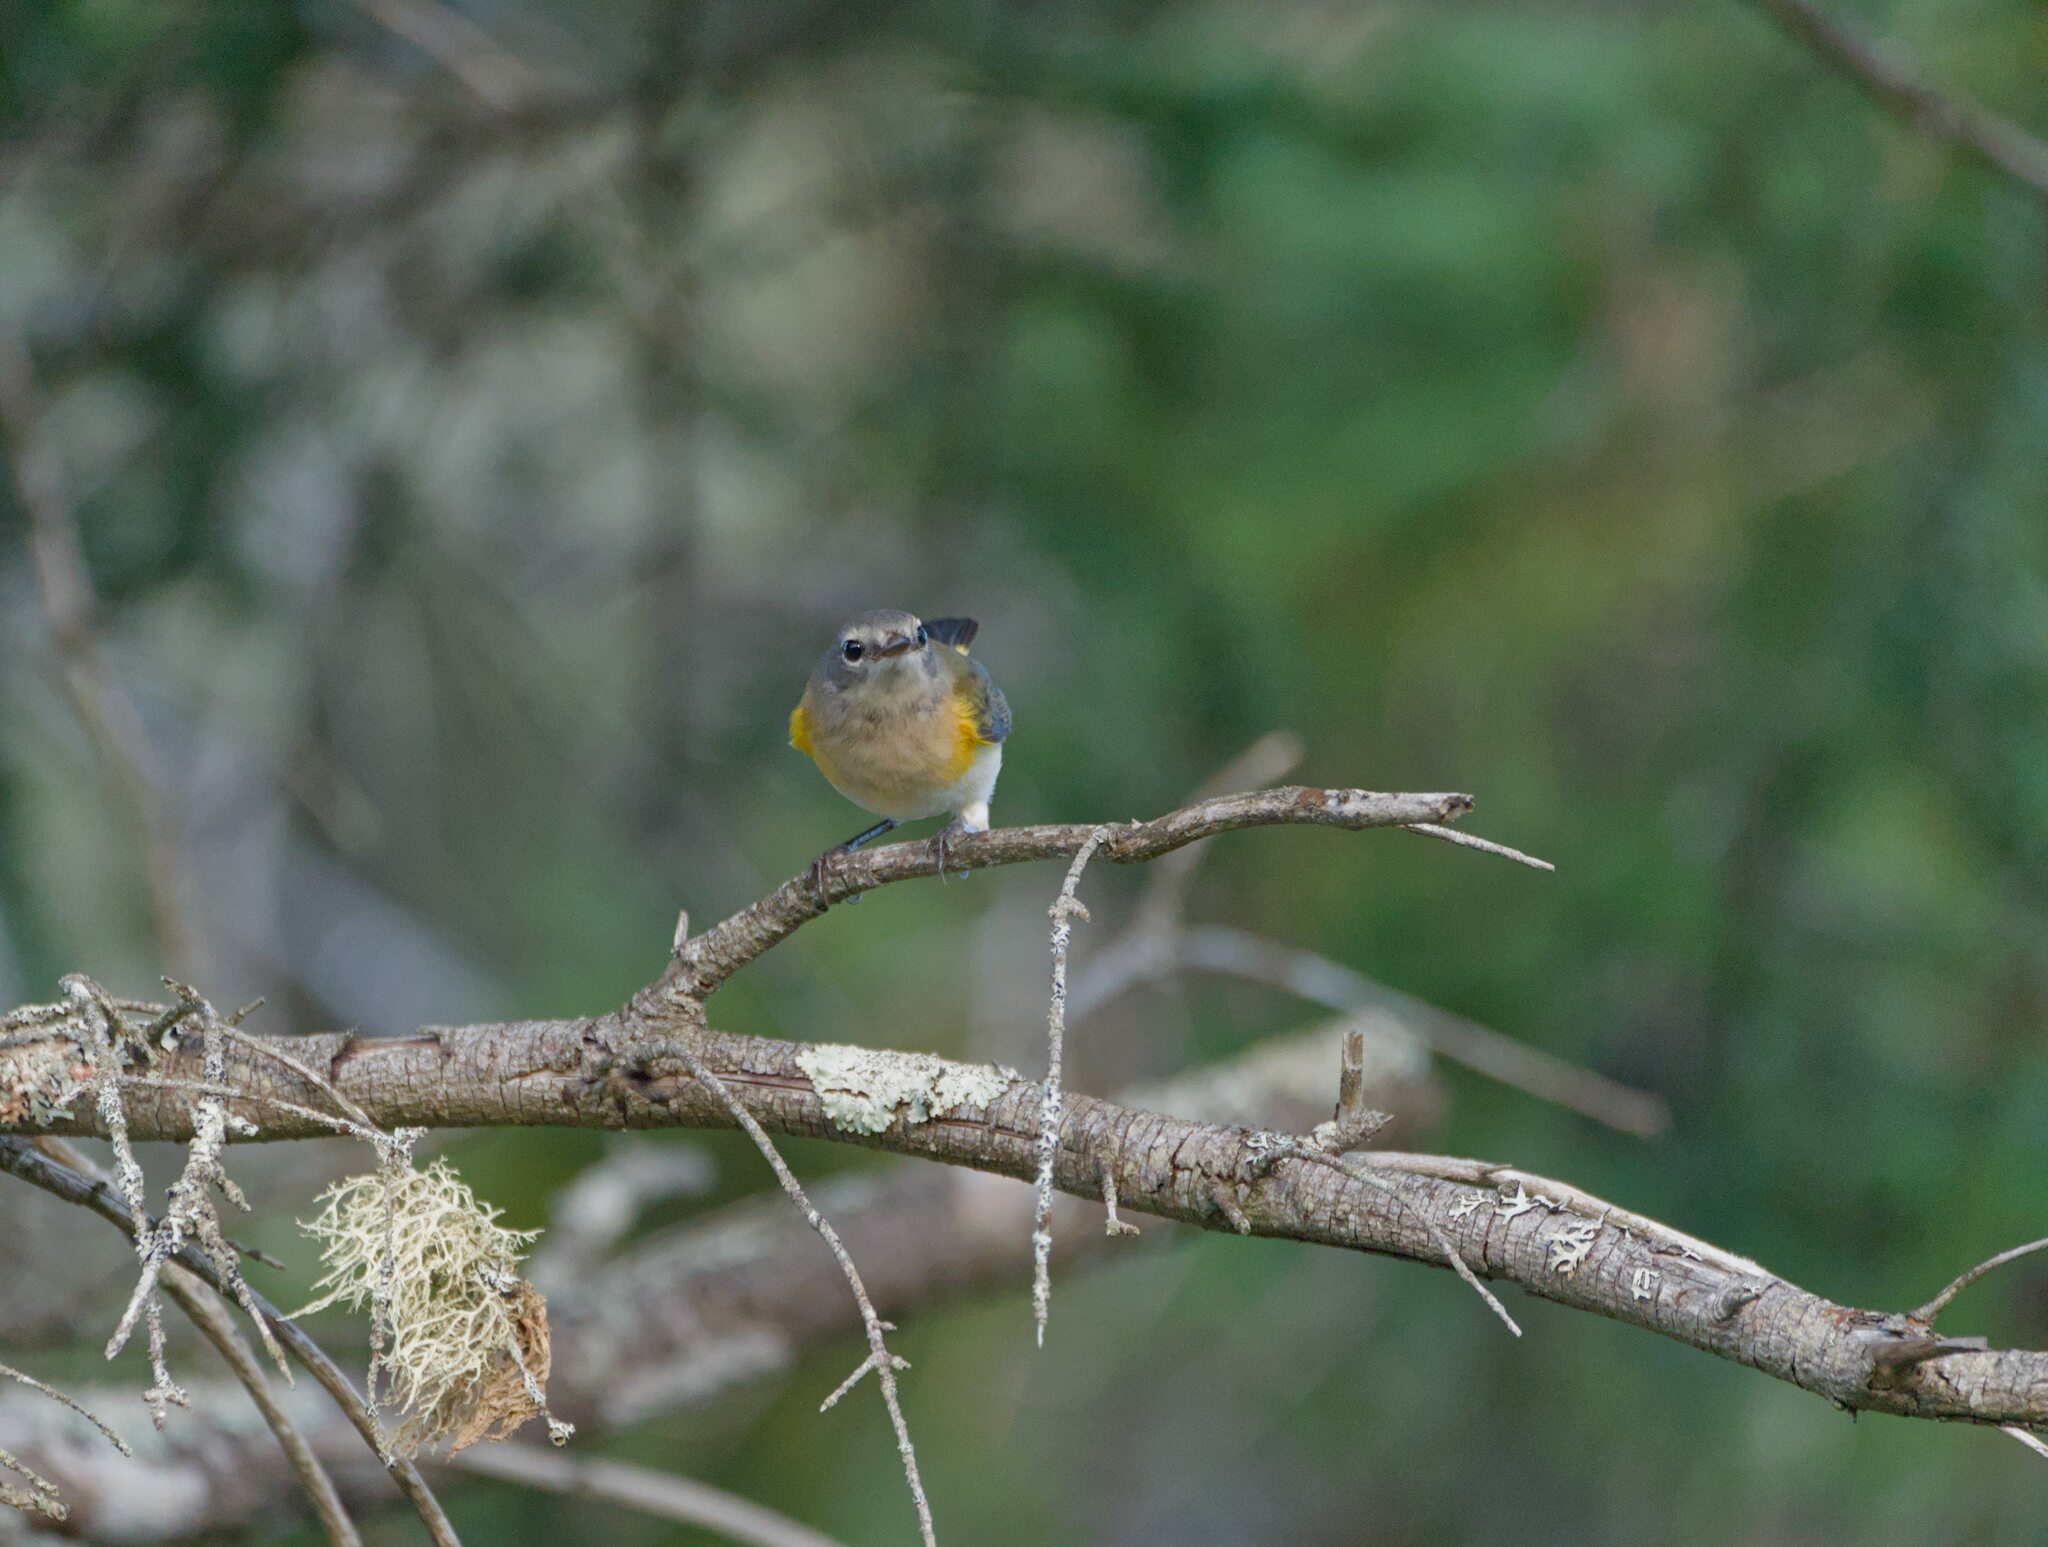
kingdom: Animalia
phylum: Chordata
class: Aves
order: Passeriformes
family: Parulidae
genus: Setophaga
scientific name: Setophaga ruticilla
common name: American redstart
